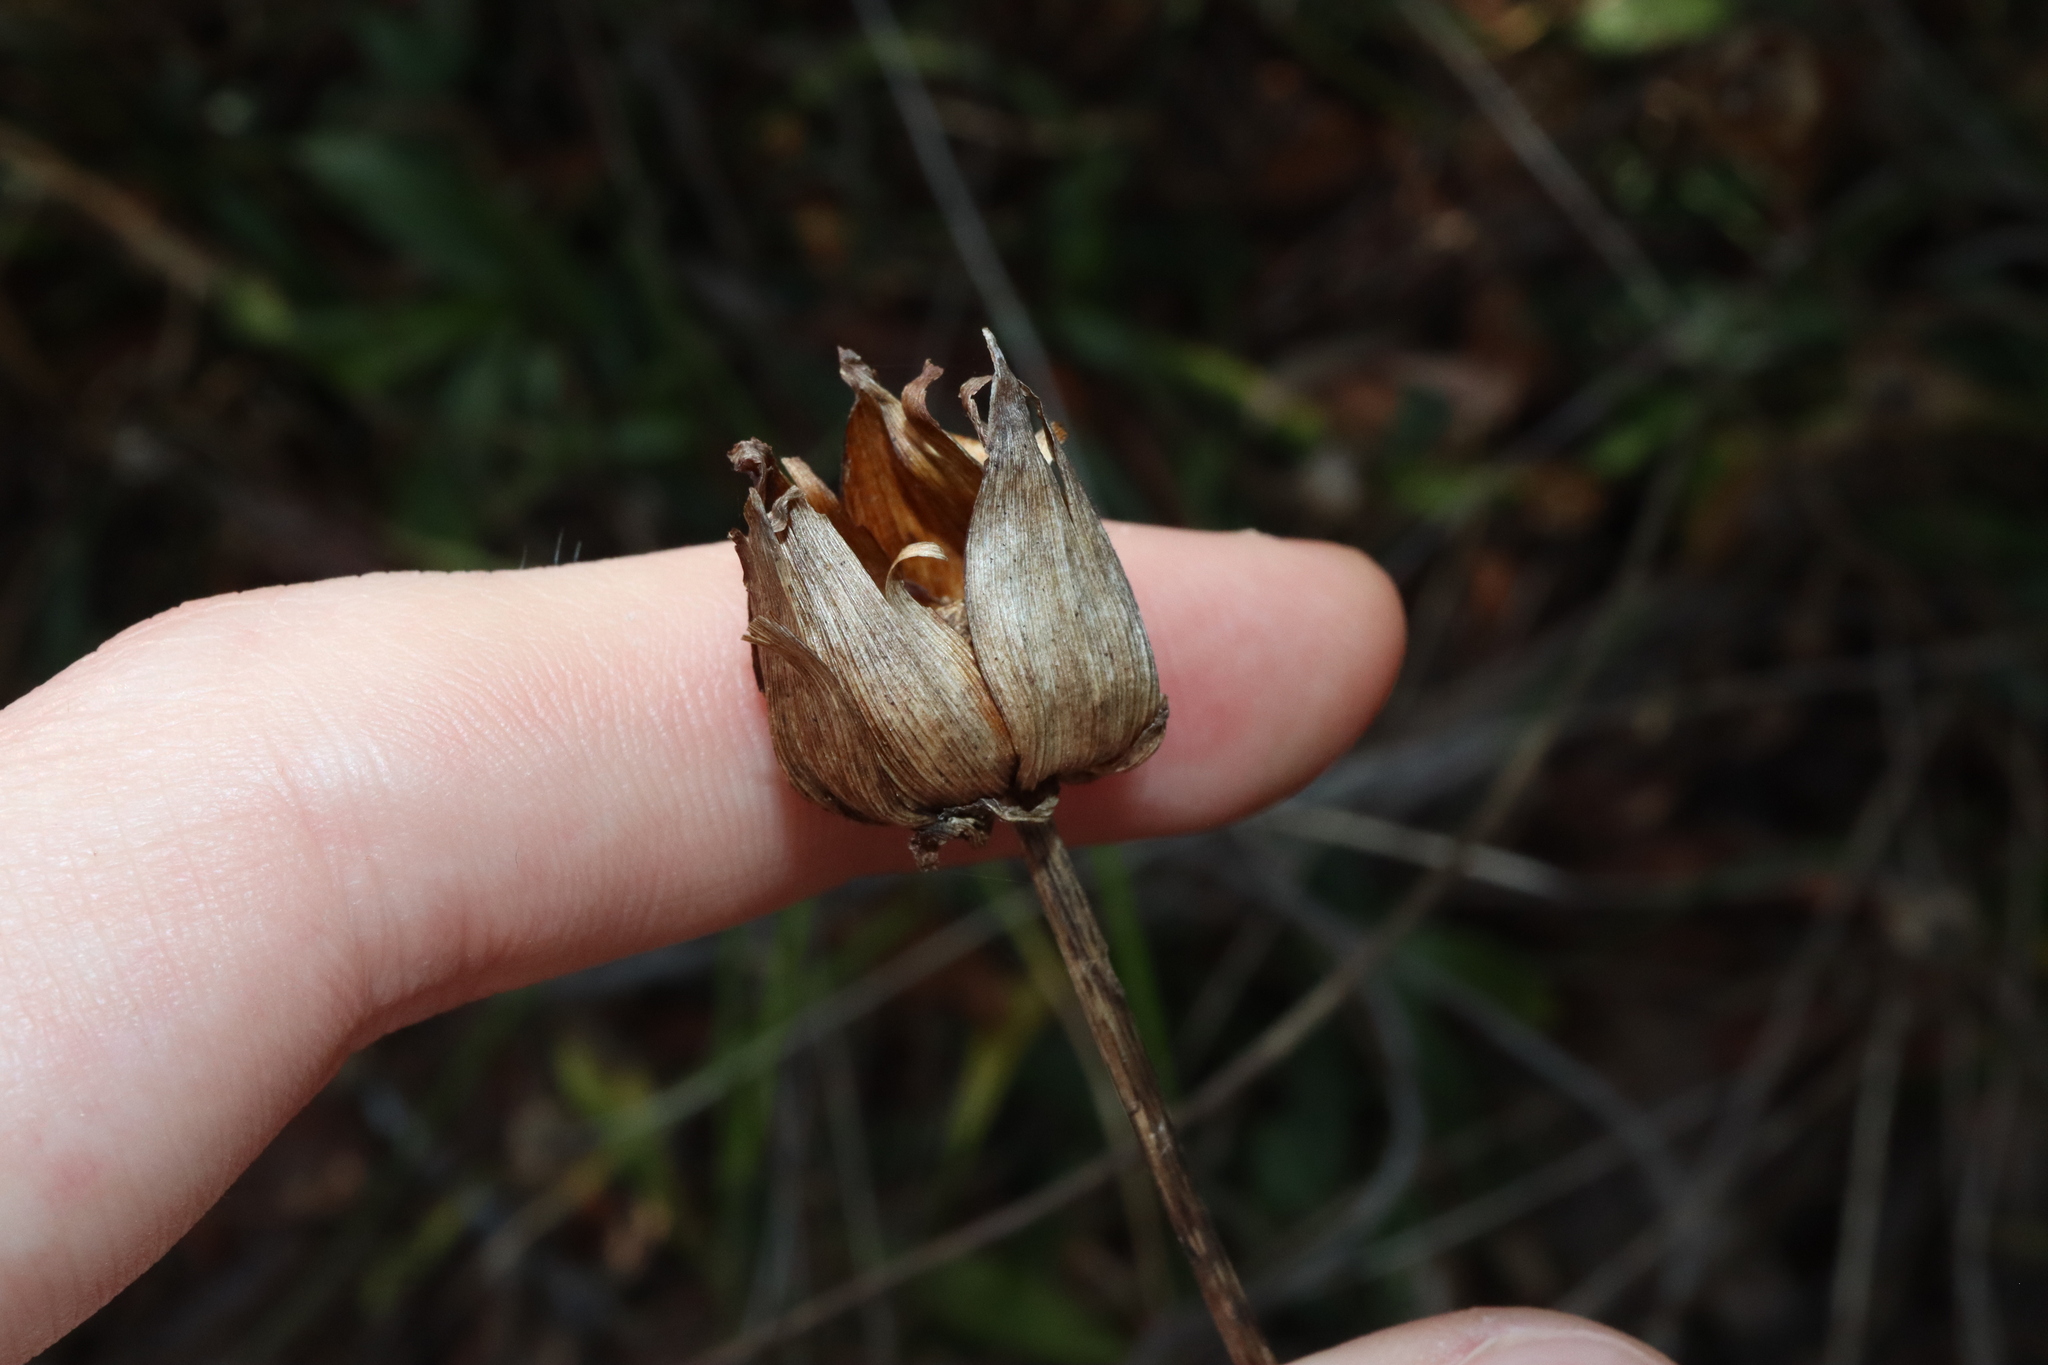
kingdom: Plantae
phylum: Tracheophyta
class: Magnoliopsida
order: Asterales
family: Asteraceae
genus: Coreopsis
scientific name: Coreopsis lanceolata
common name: Garden coreopsis
